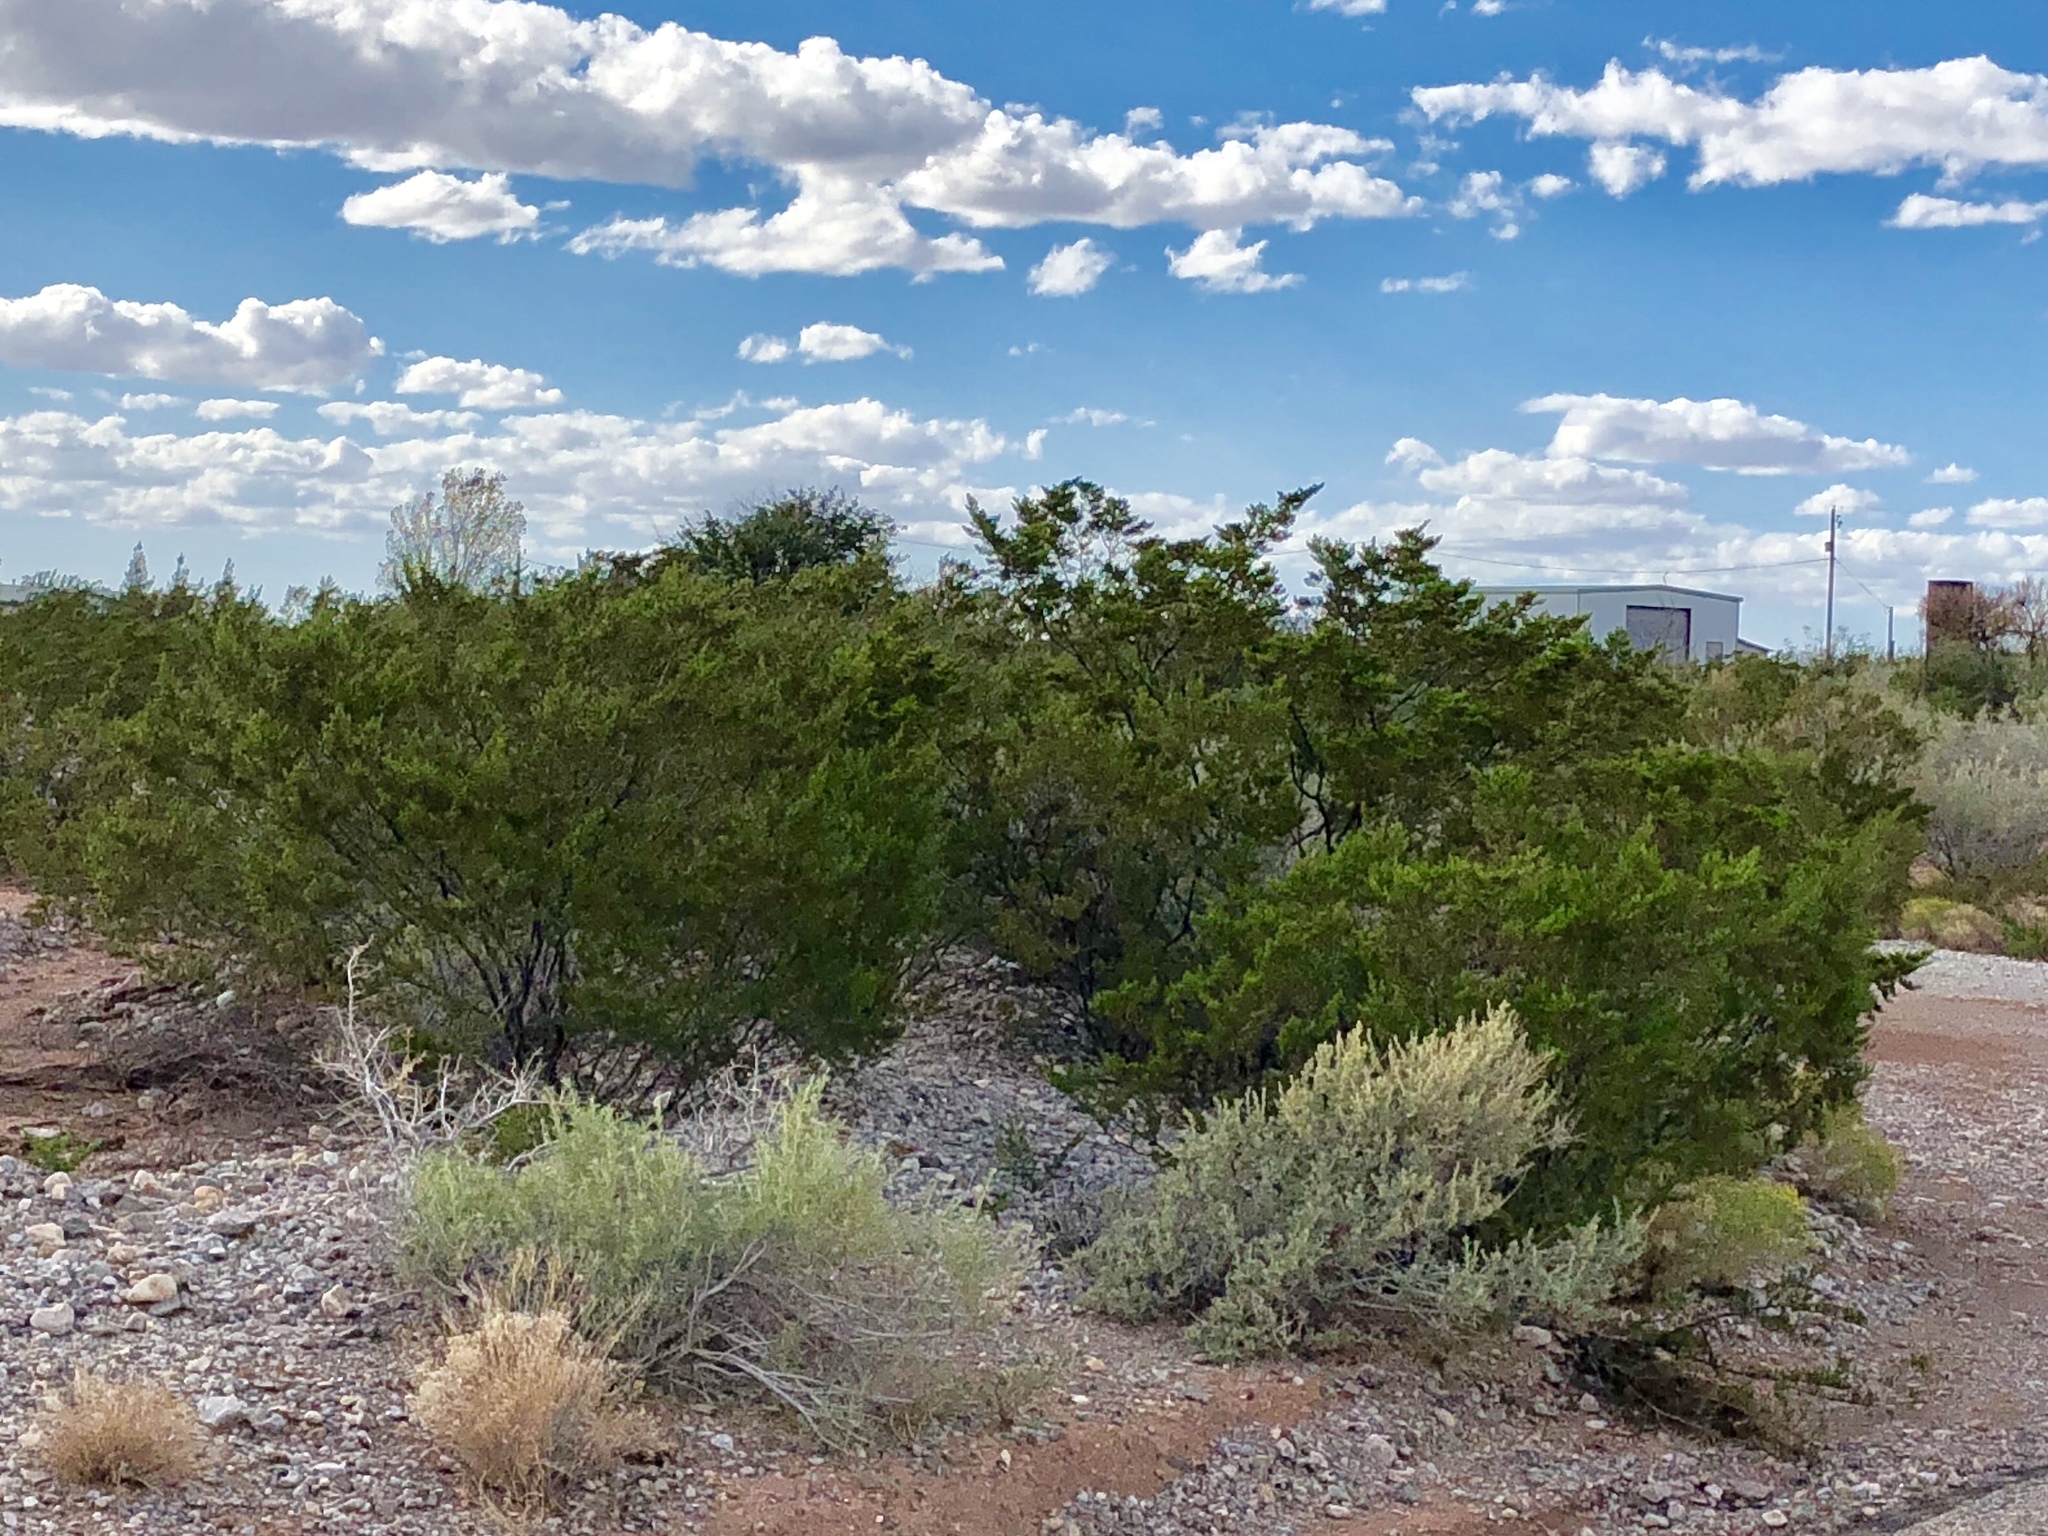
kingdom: Plantae
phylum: Tracheophyta
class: Magnoliopsida
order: Zygophyllales
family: Zygophyllaceae
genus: Larrea
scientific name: Larrea tridentata
